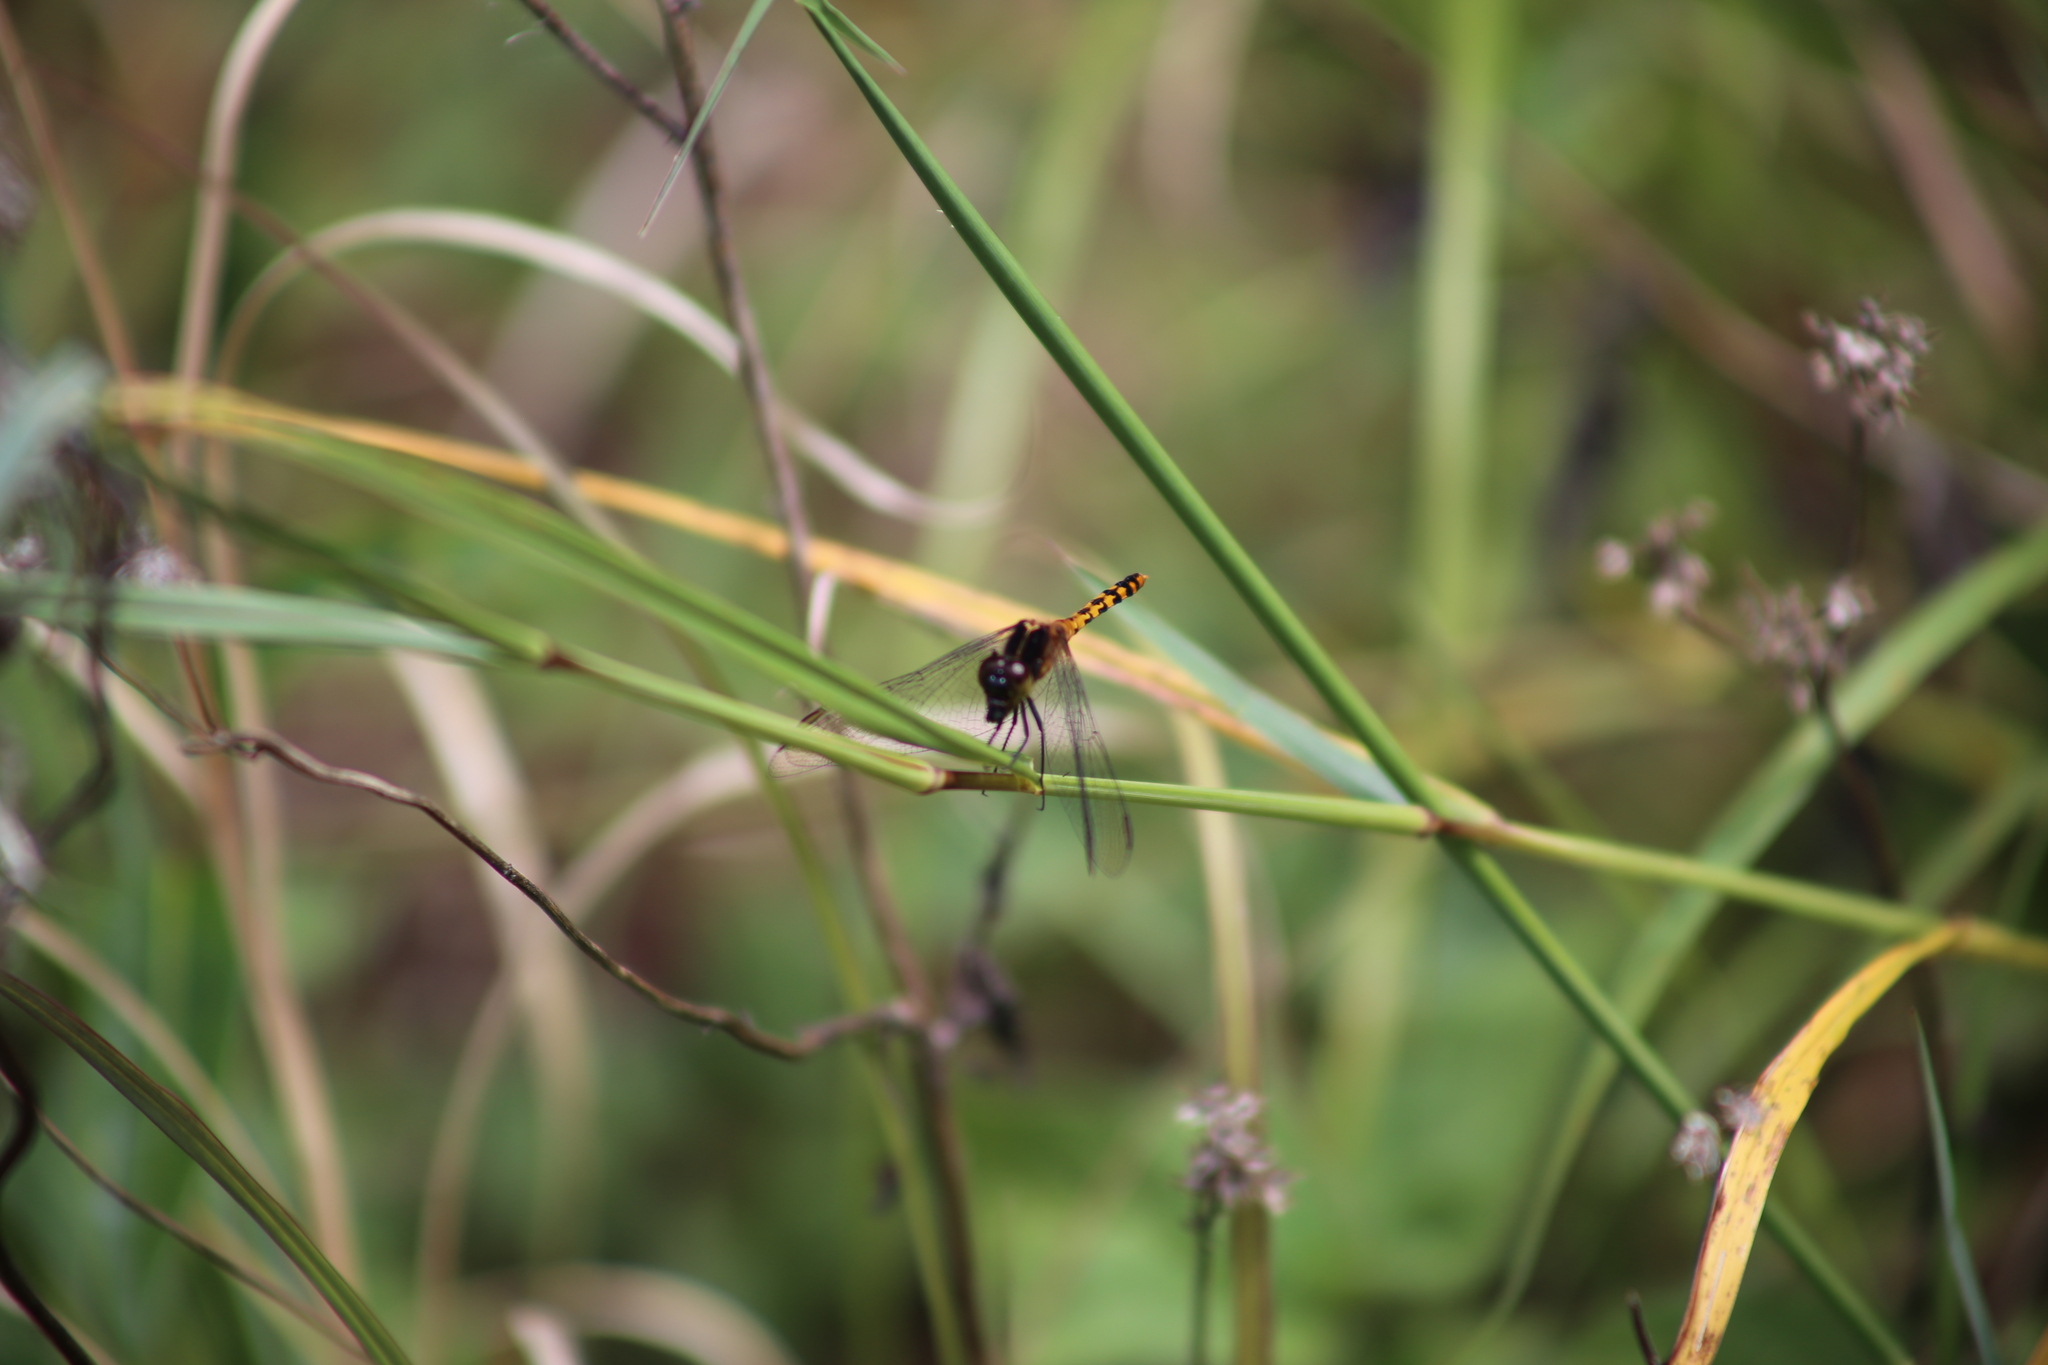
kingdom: Animalia
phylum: Arthropoda
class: Insecta
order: Odonata
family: Libellulidae
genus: Diplacodes
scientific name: Diplacodes melanopsis
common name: Black-faced percher
